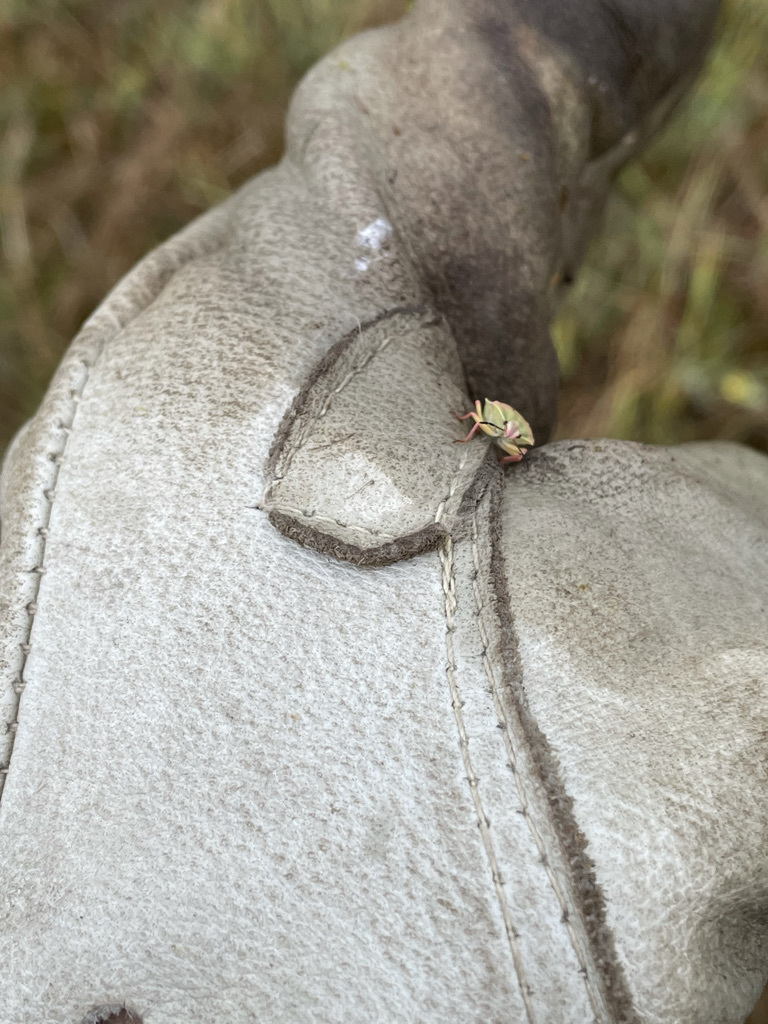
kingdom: Animalia
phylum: Arthropoda
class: Insecta
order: Hemiptera
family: Pentatomidae
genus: Antheminia
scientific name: Antheminia
